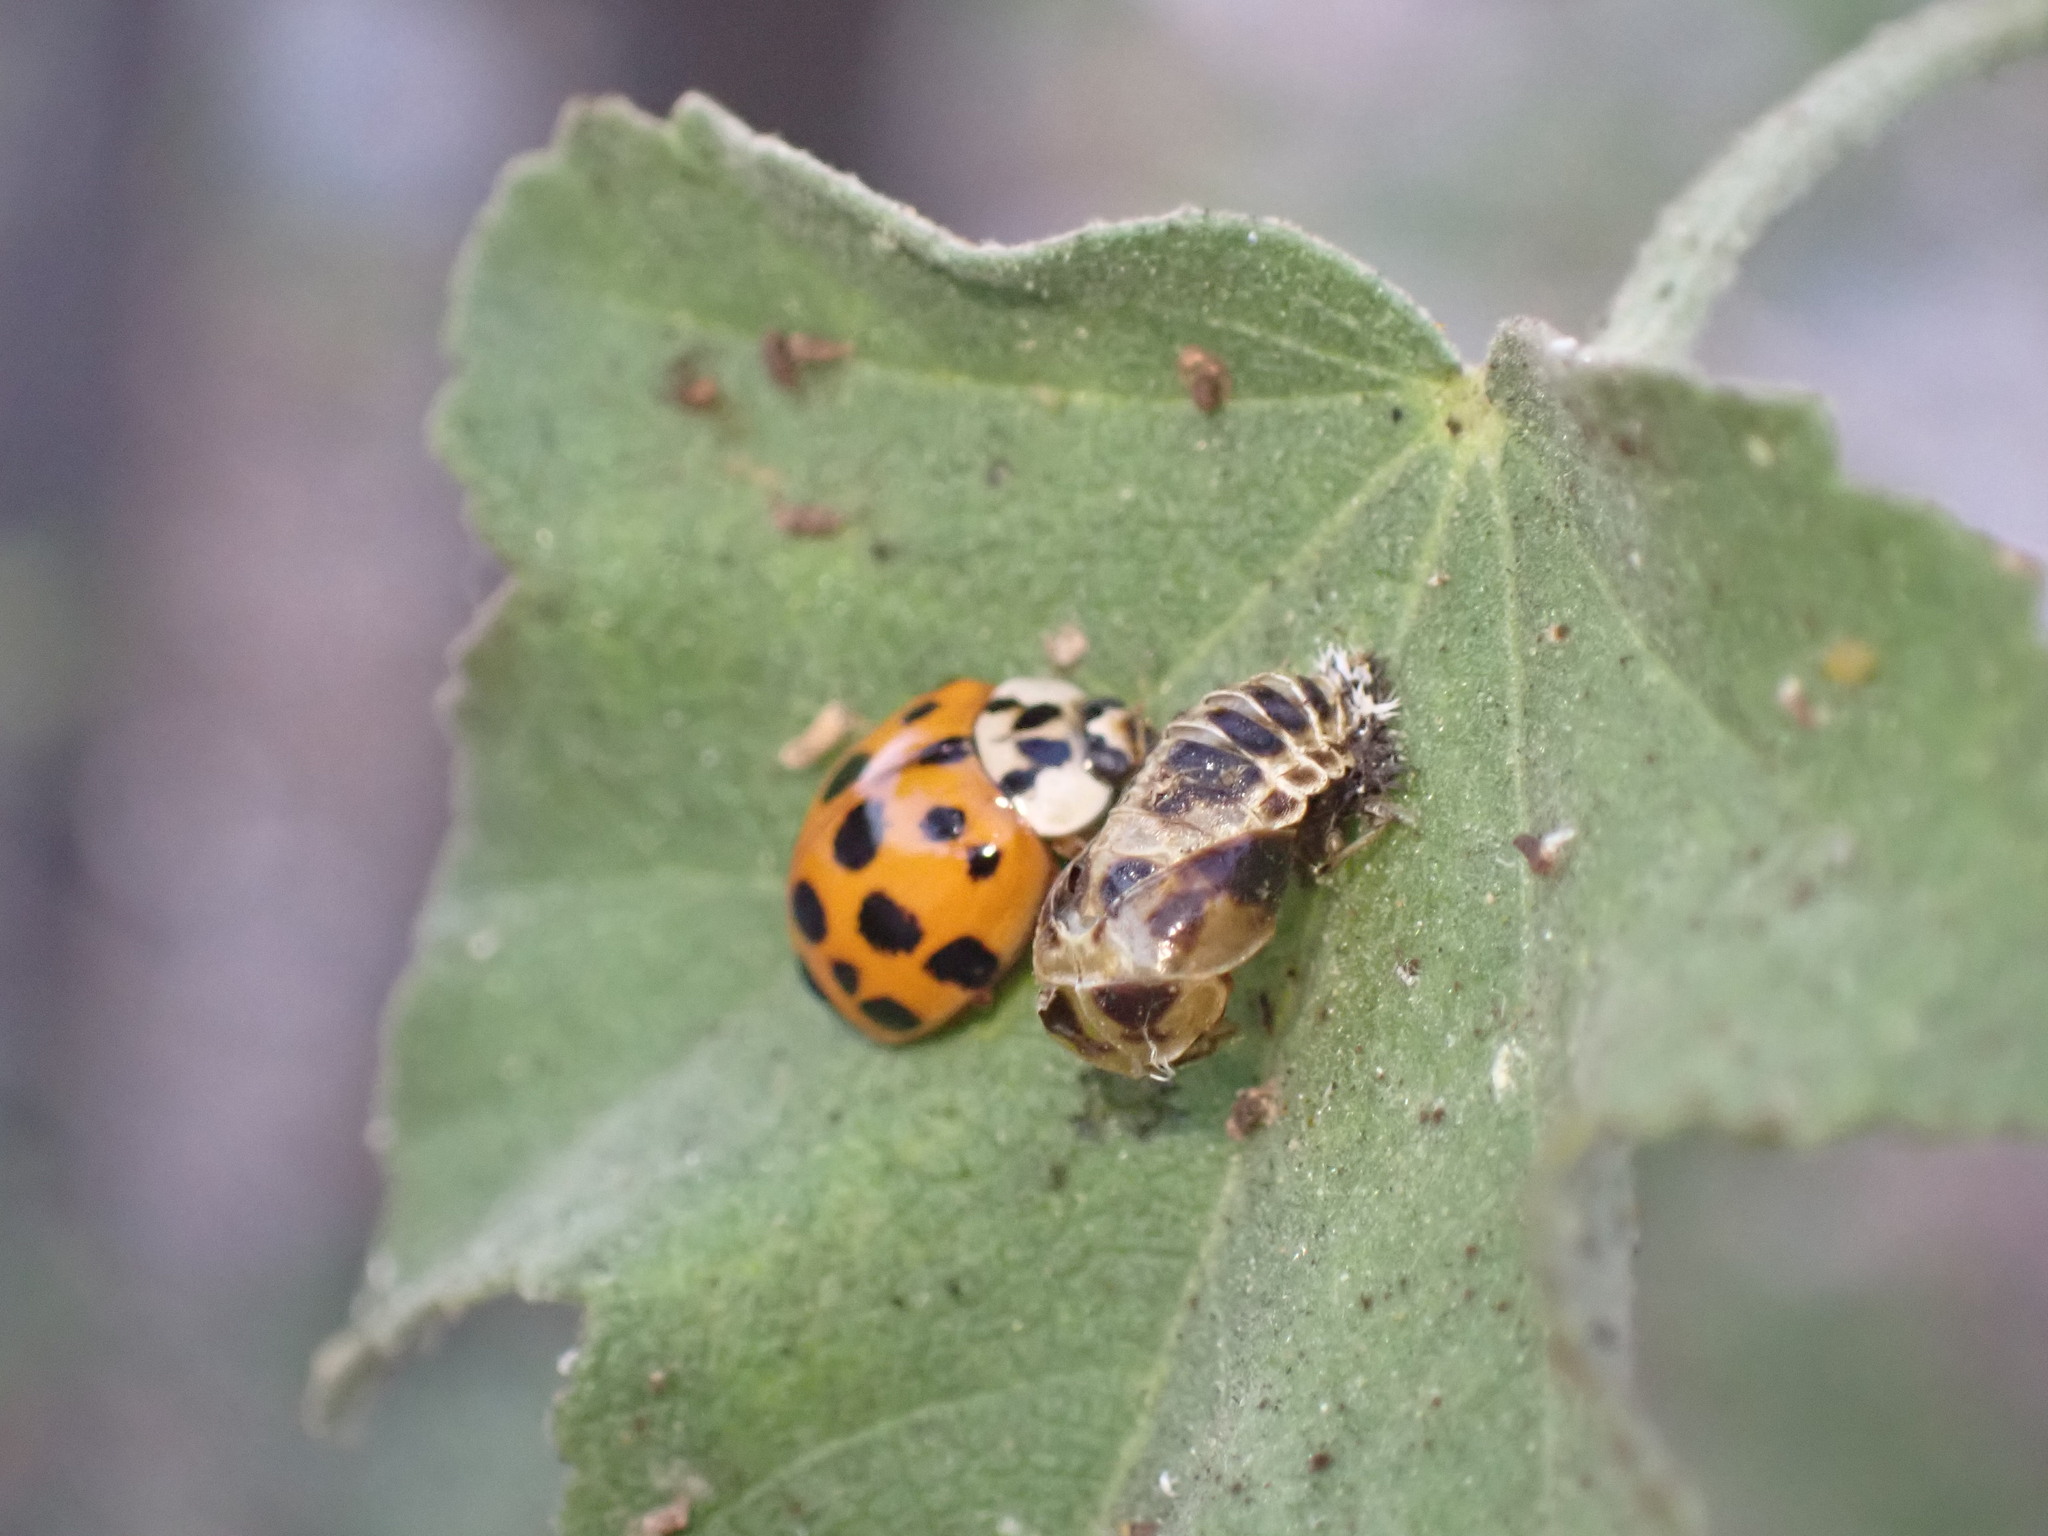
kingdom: Animalia
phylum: Arthropoda
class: Insecta
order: Coleoptera
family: Coccinellidae
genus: Harmonia
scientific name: Harmonia axyridis
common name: Harlequin ladybird
